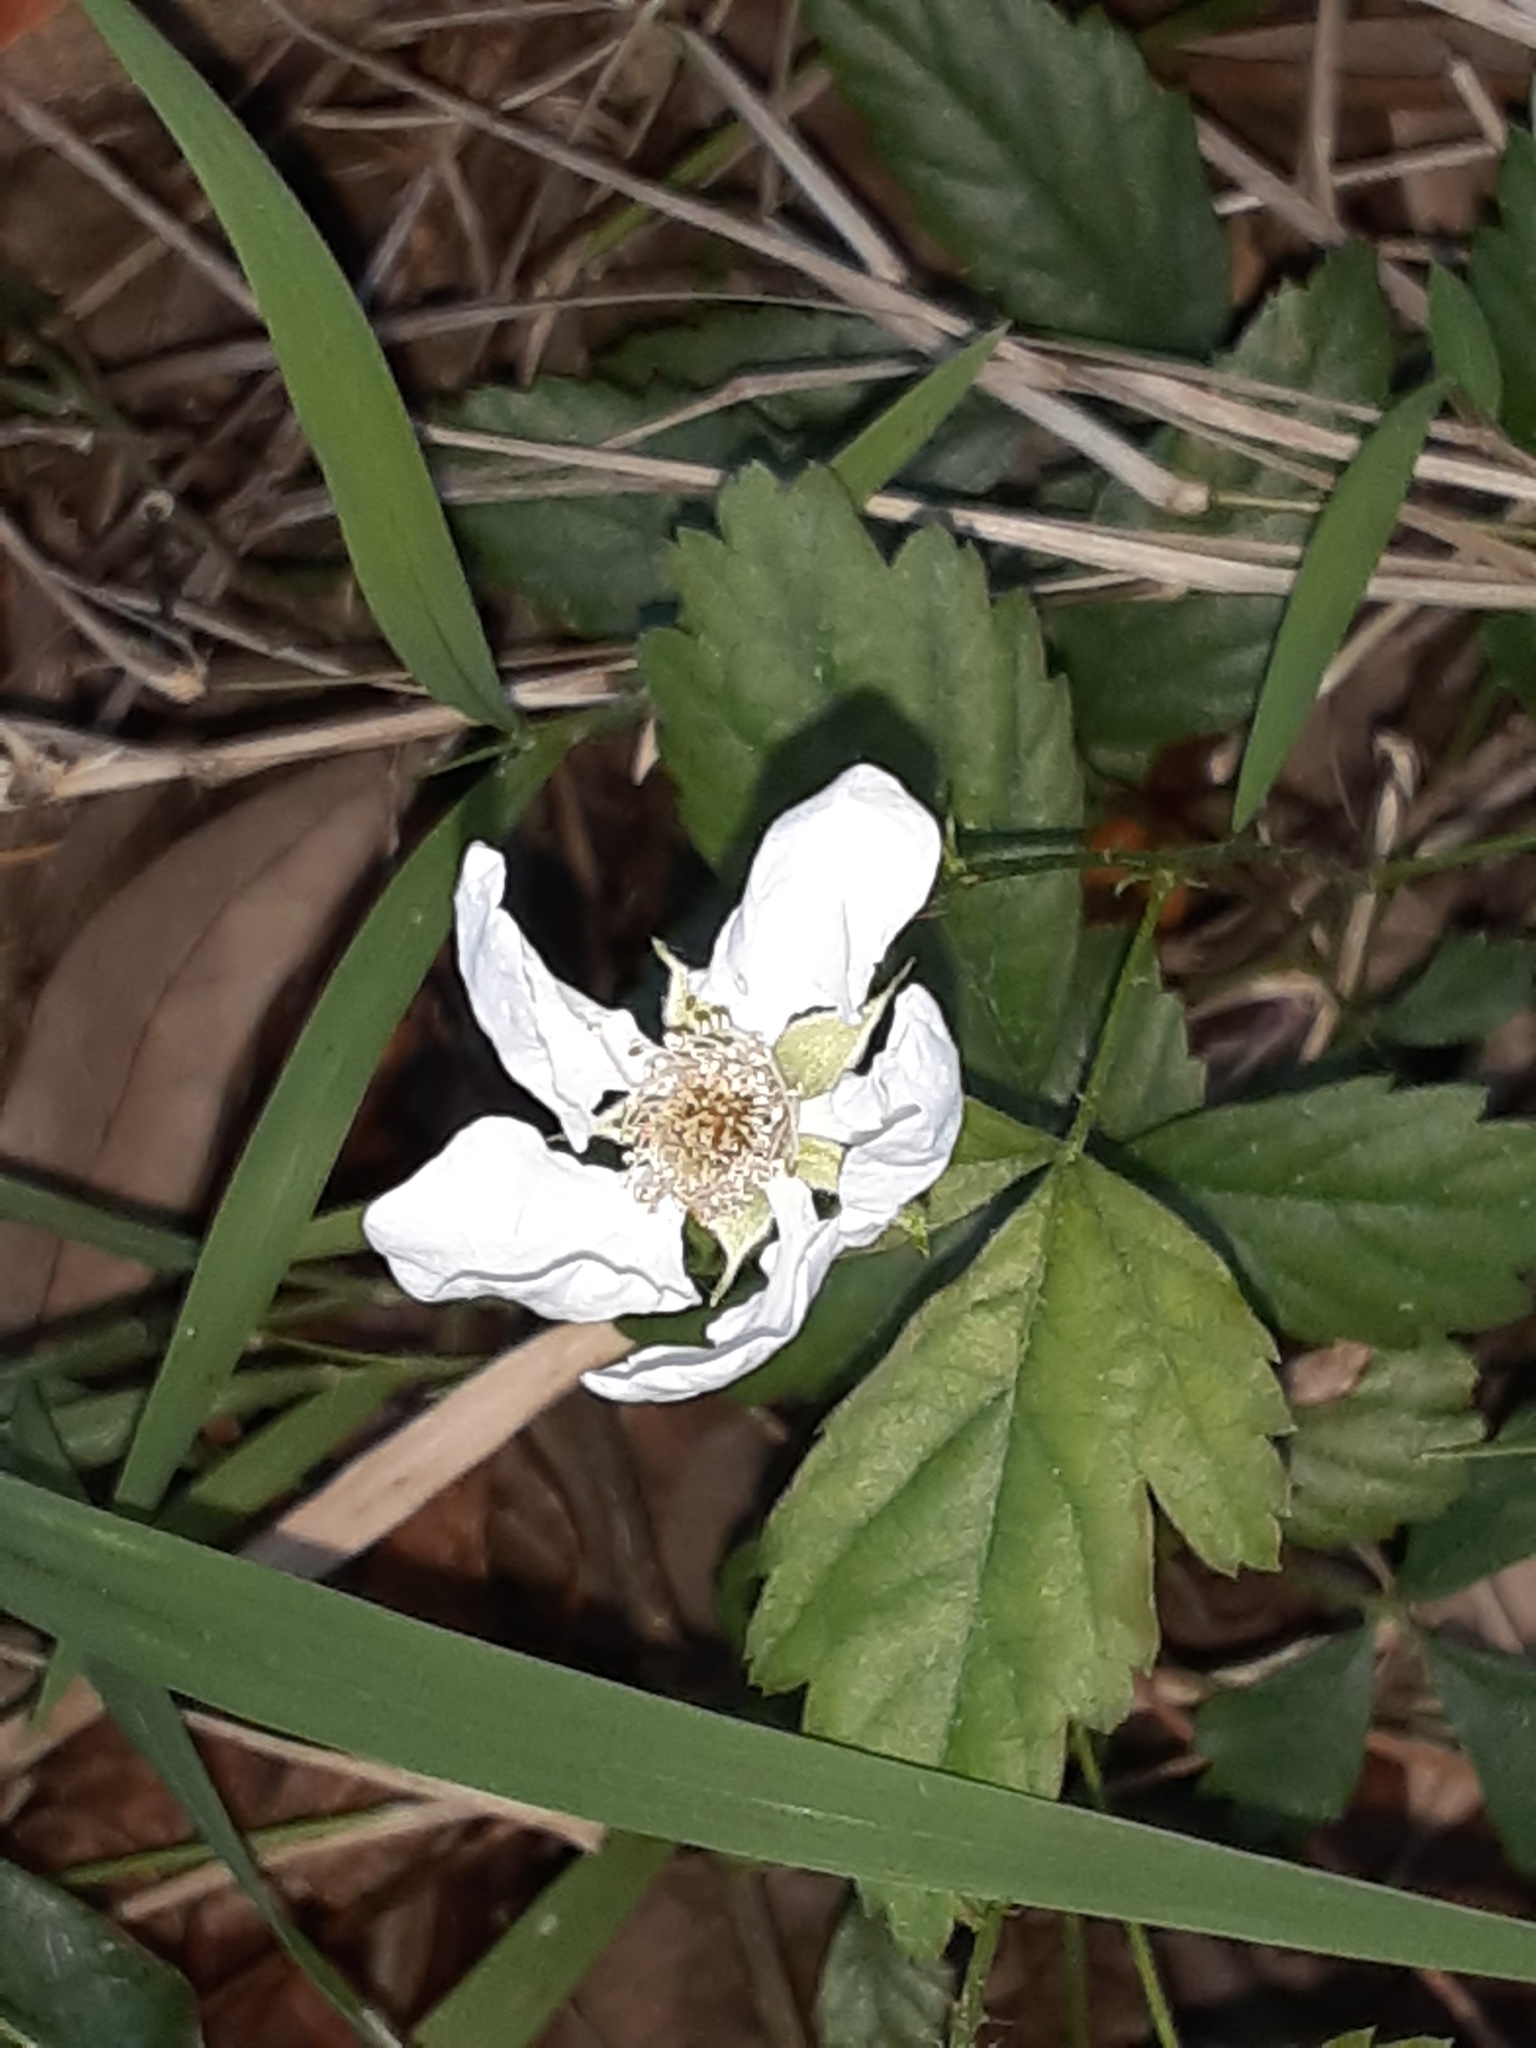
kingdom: Plantae
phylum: Tracheophyta
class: Magnoliopsida
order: Rosales
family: Rosaceae
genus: Rubus
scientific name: Rubus trivialis
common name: Southern dewberry
